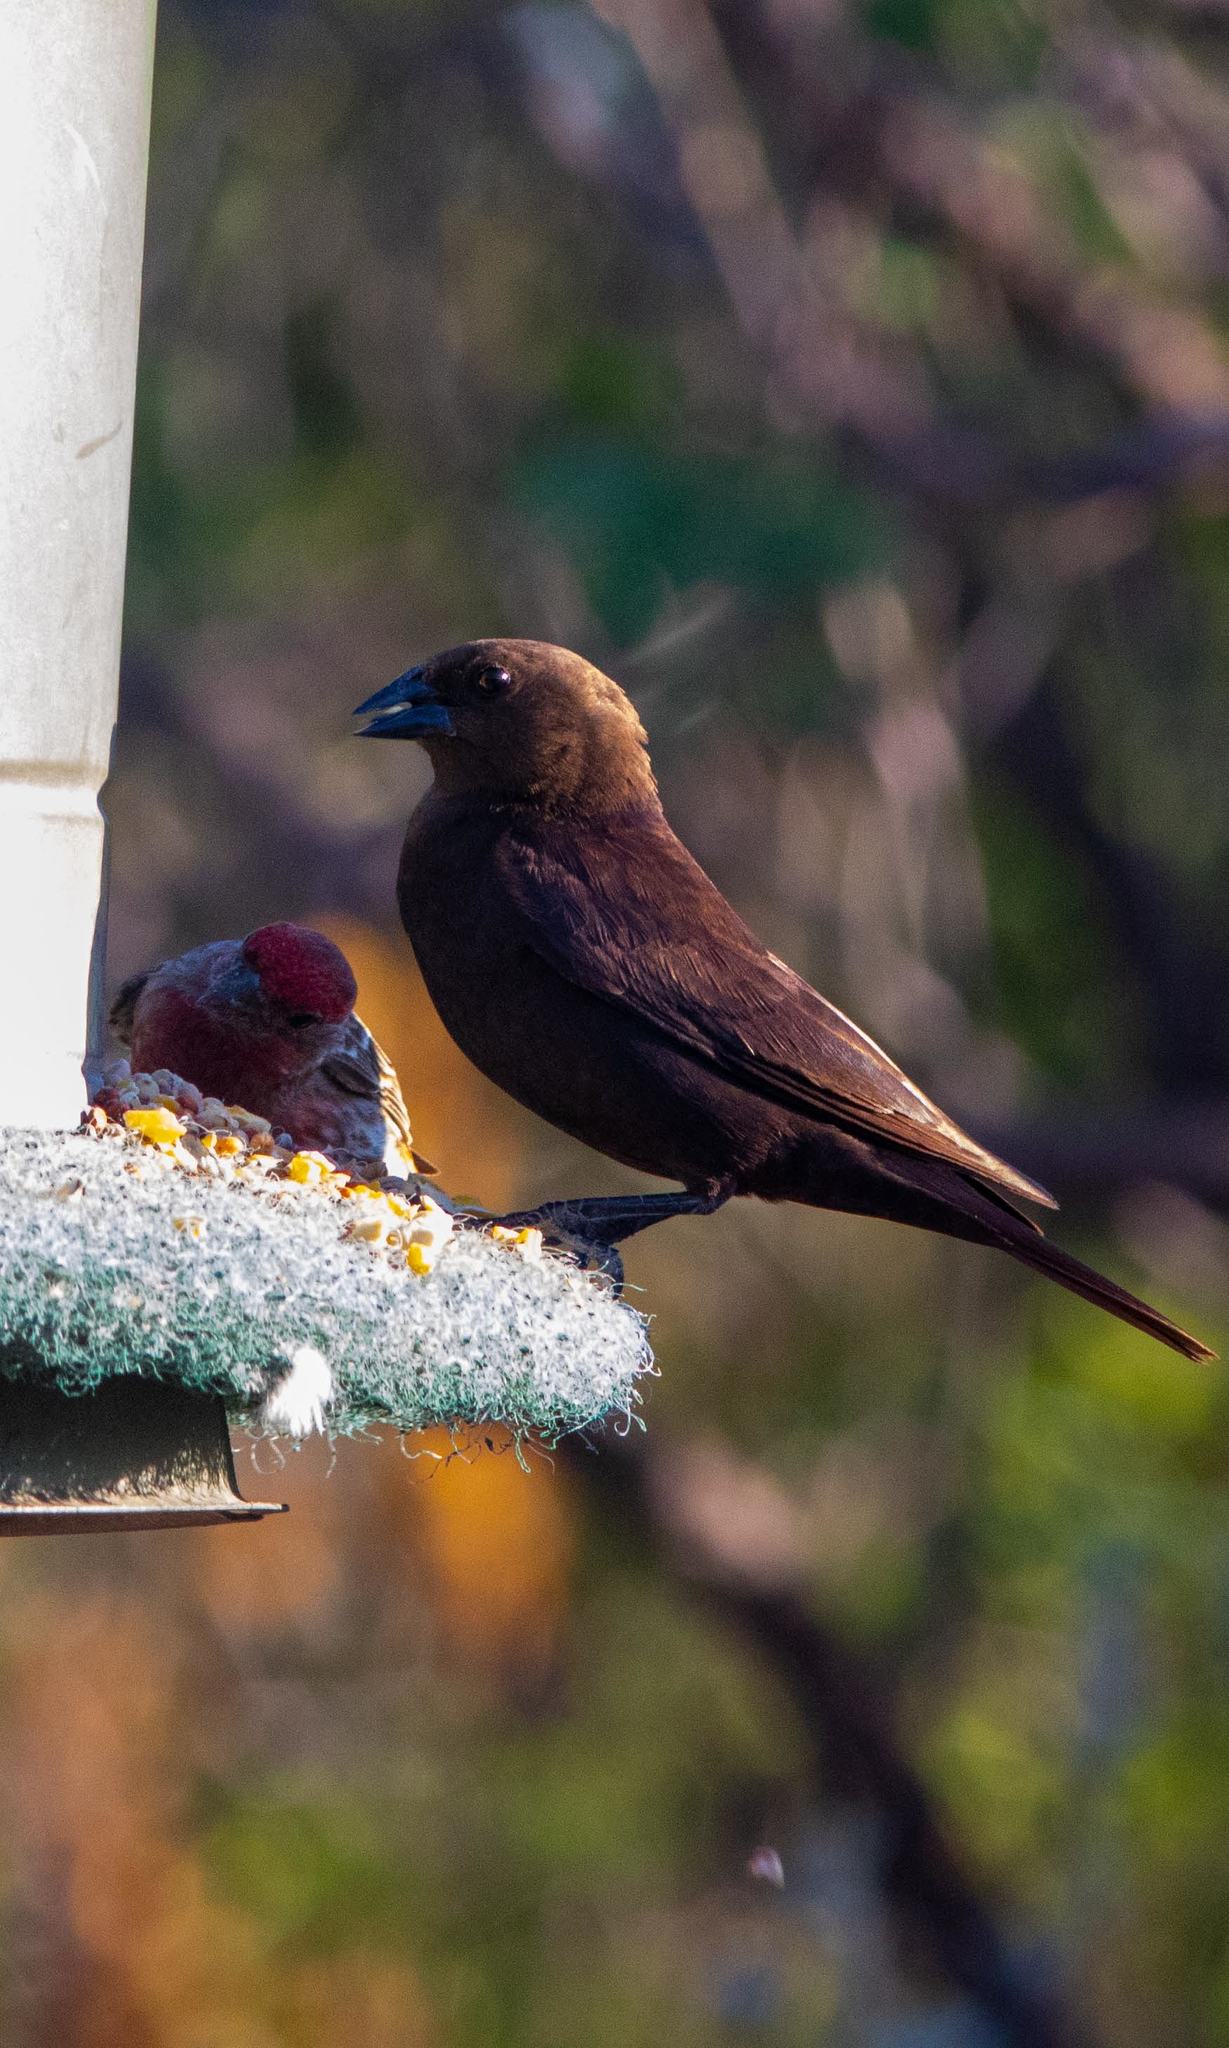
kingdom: Animalia
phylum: Chordata
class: Aves
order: Passeriformes
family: Icteridae
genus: Molothrus
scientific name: Molothrus ater
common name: Brown-headed cowbird
